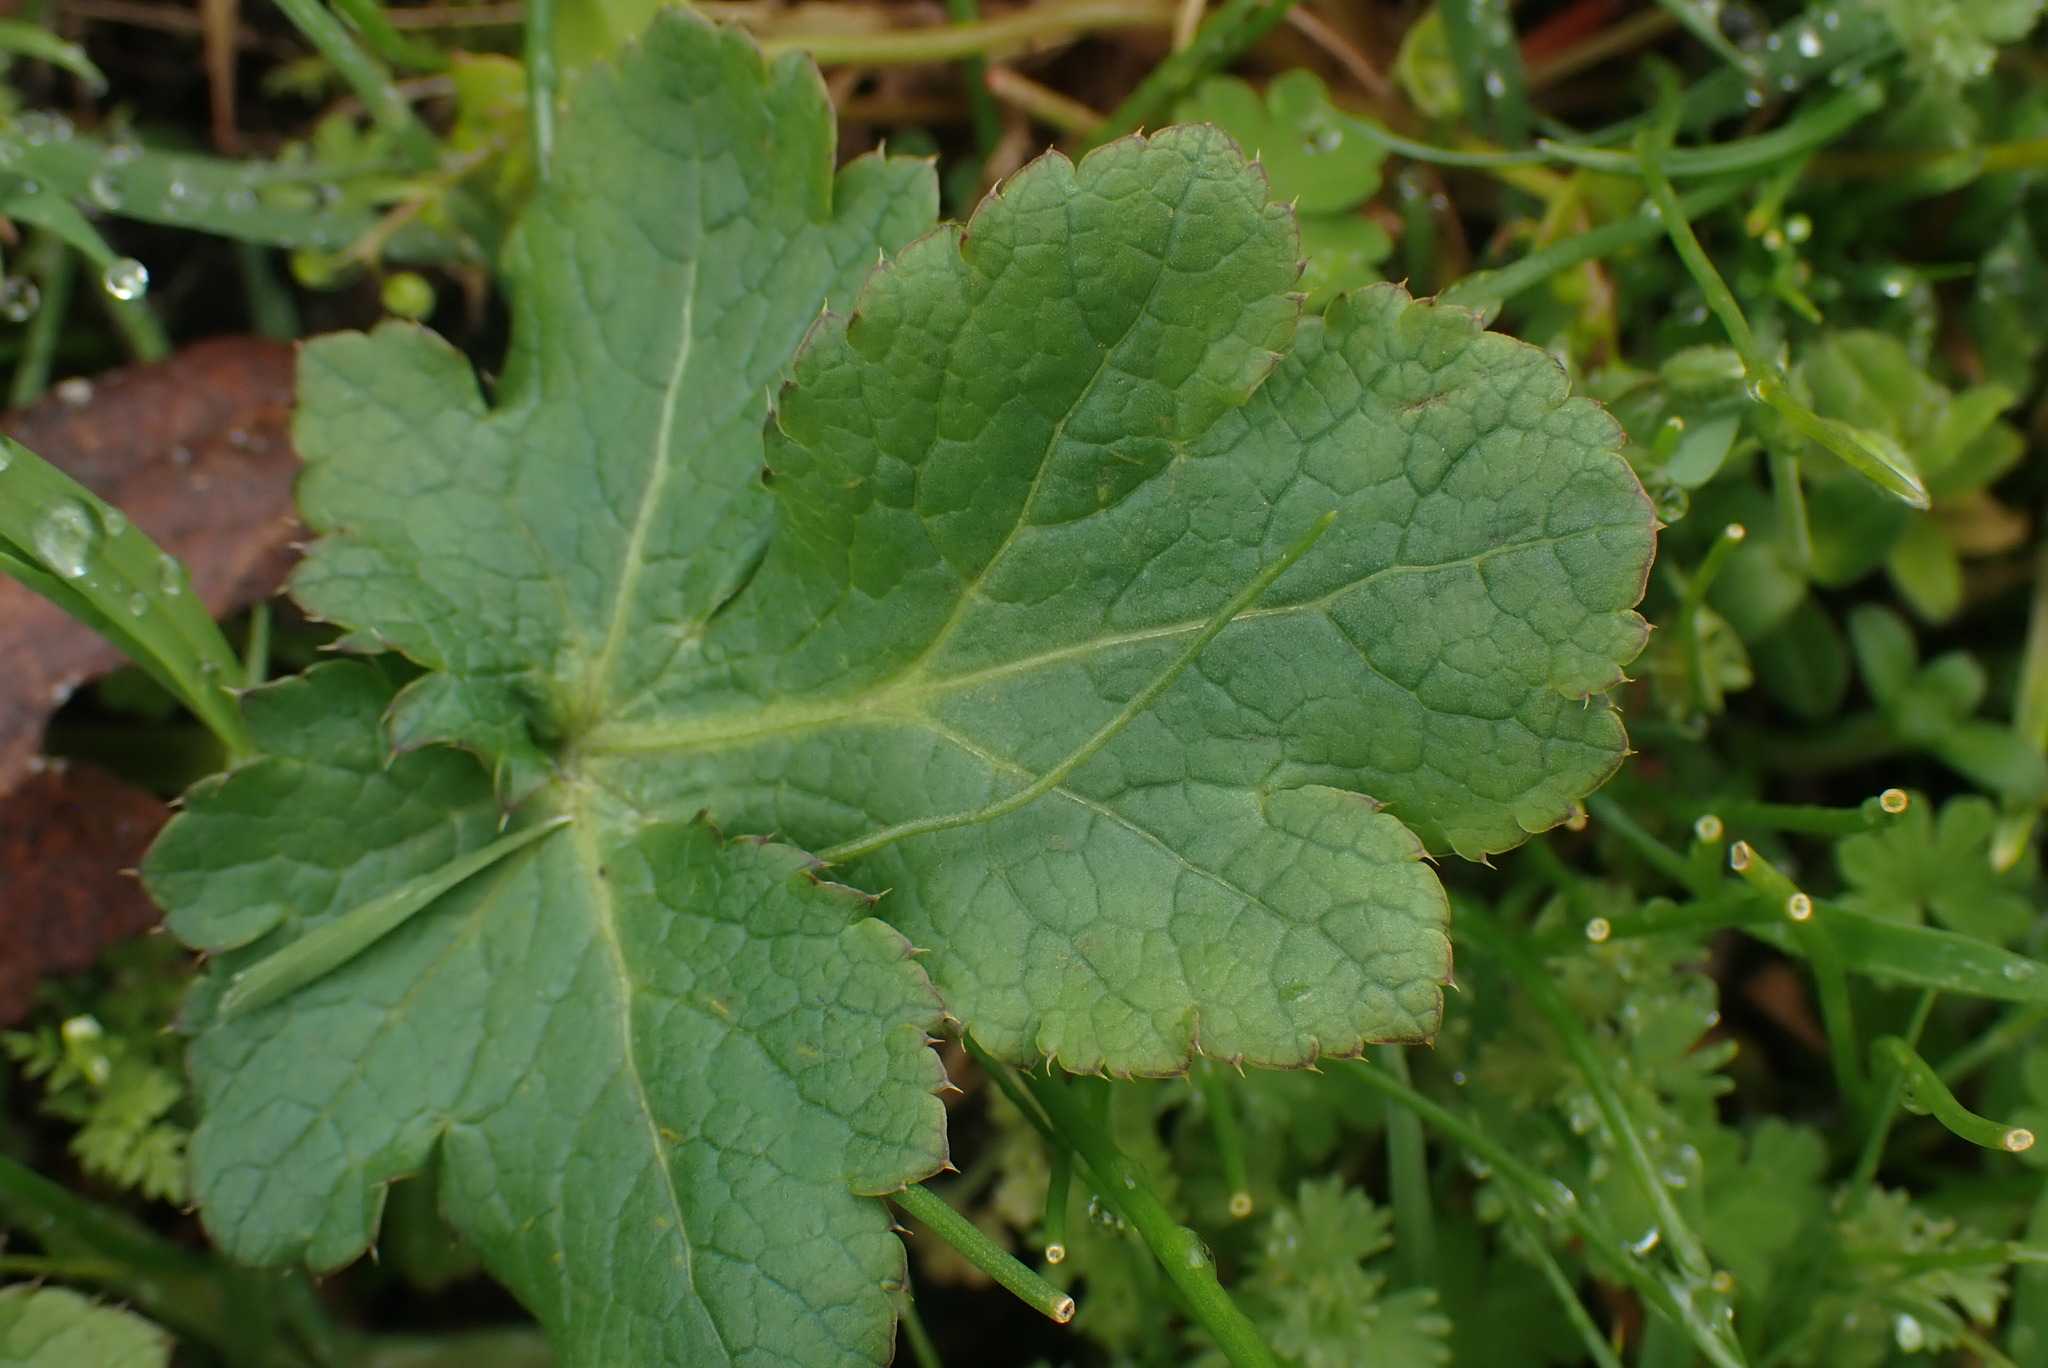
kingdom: Plantae
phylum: Tracheophyta
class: Magnoliopsida
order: Apiales
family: Apiaceae
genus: Sanicula
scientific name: Sanicula crassicaulis
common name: Western snakeroot
